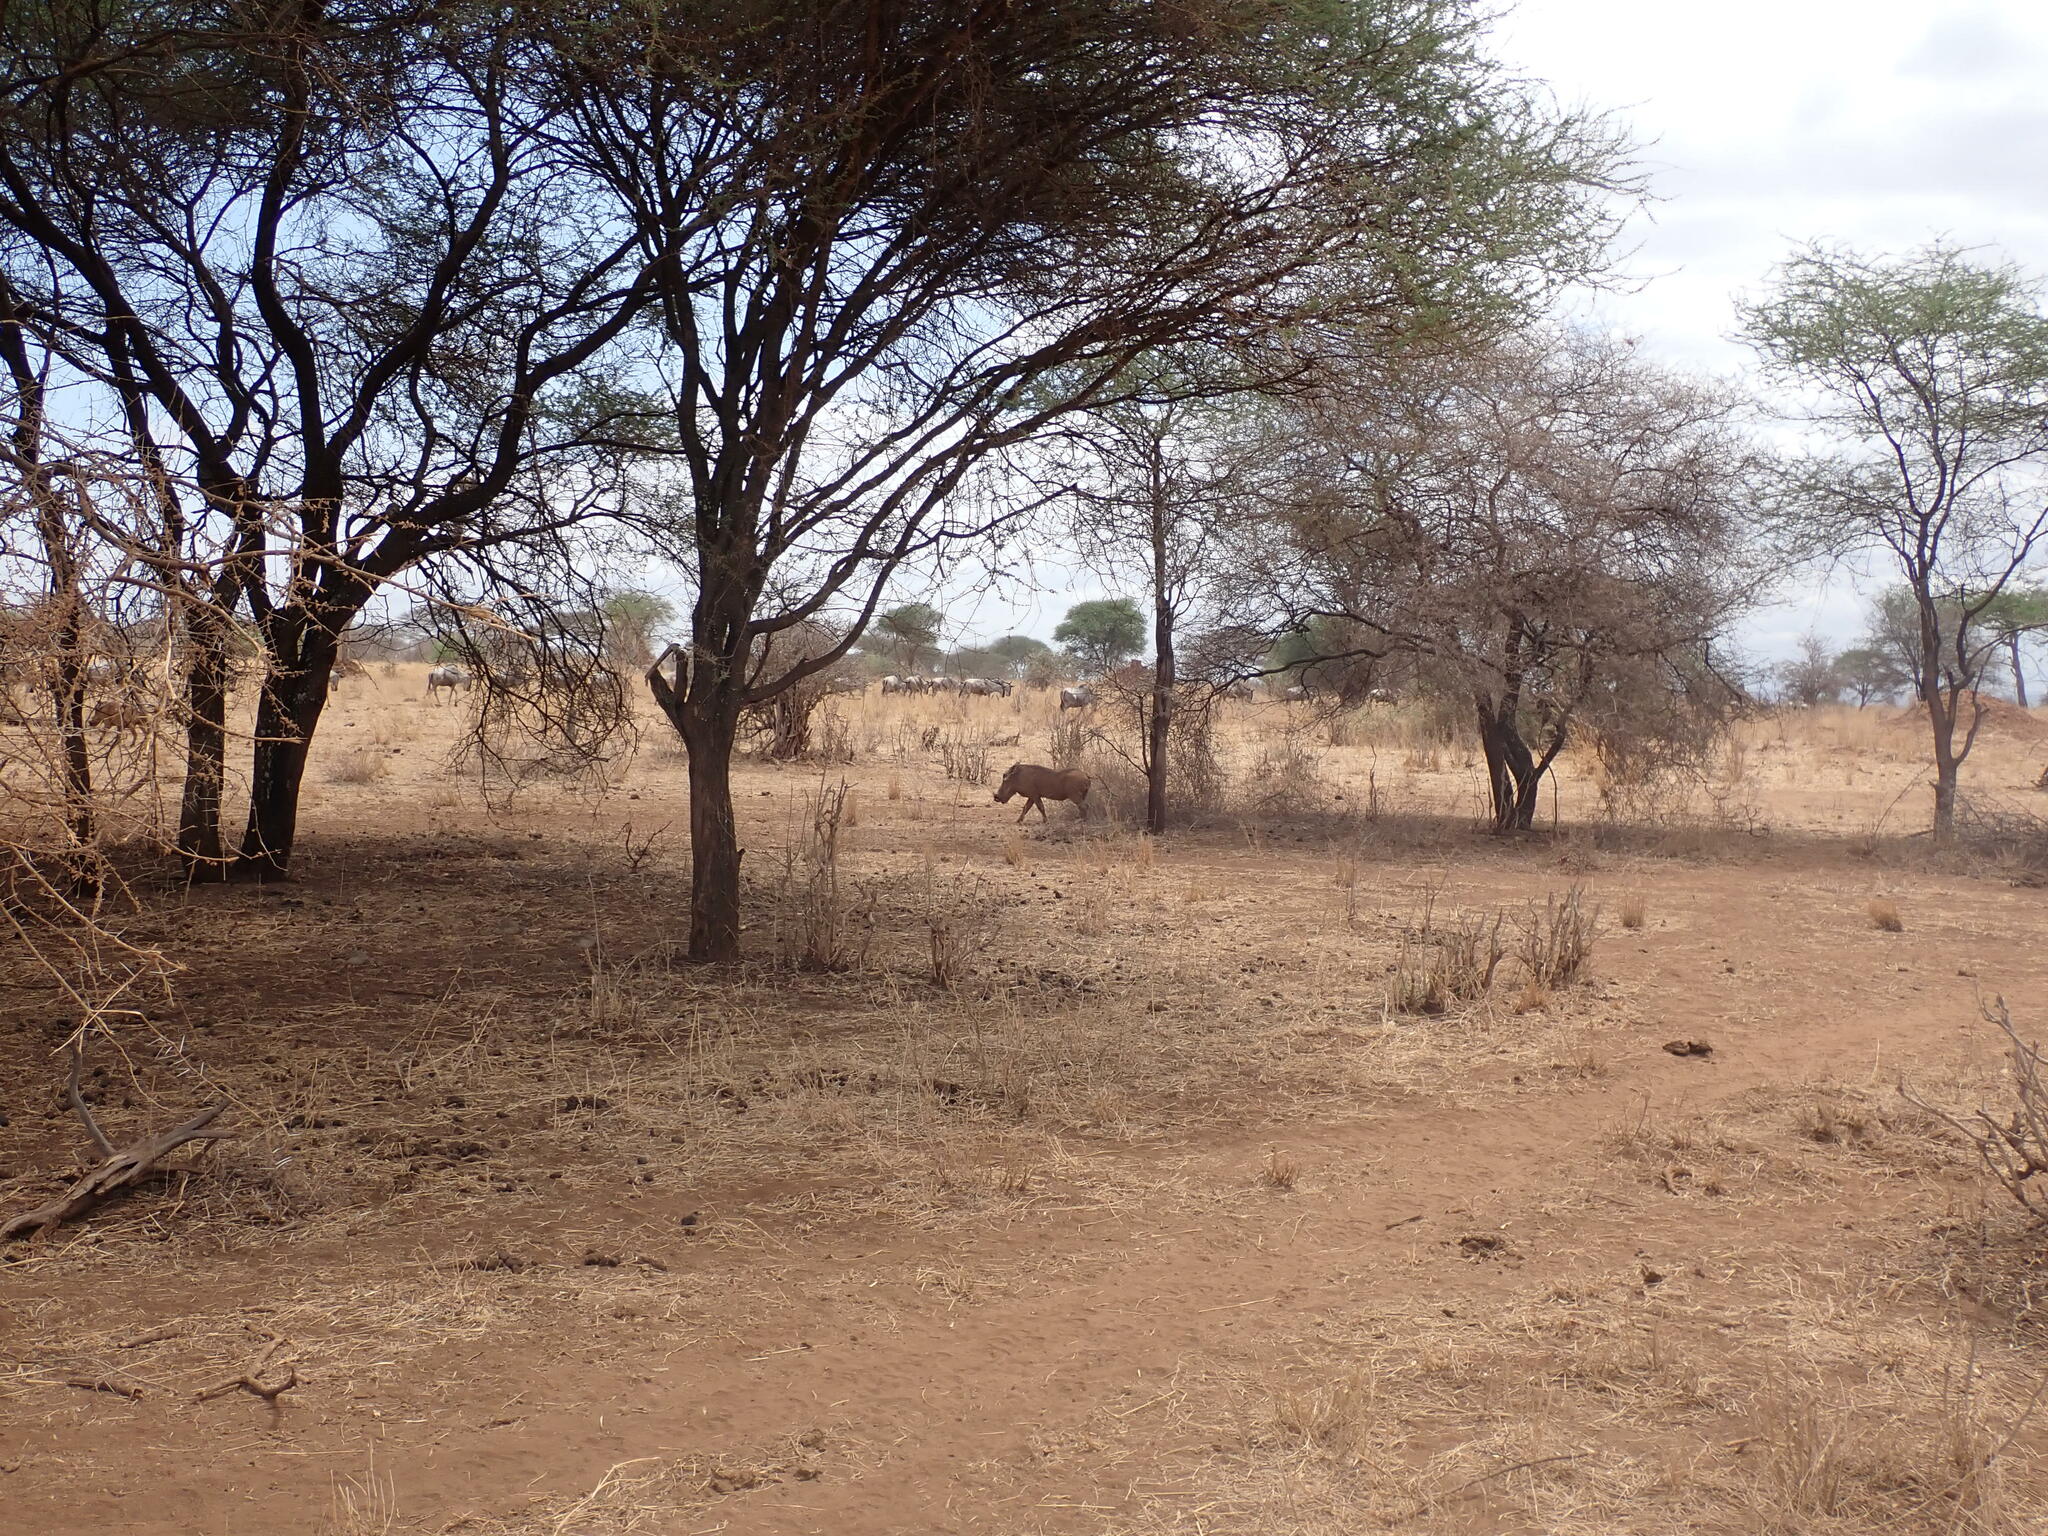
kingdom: Animalia
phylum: Chordata
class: Mammalia
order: Artiodactyla
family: Suidae
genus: Phacochoerus
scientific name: Phacochoerus africanus
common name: Common warthog
